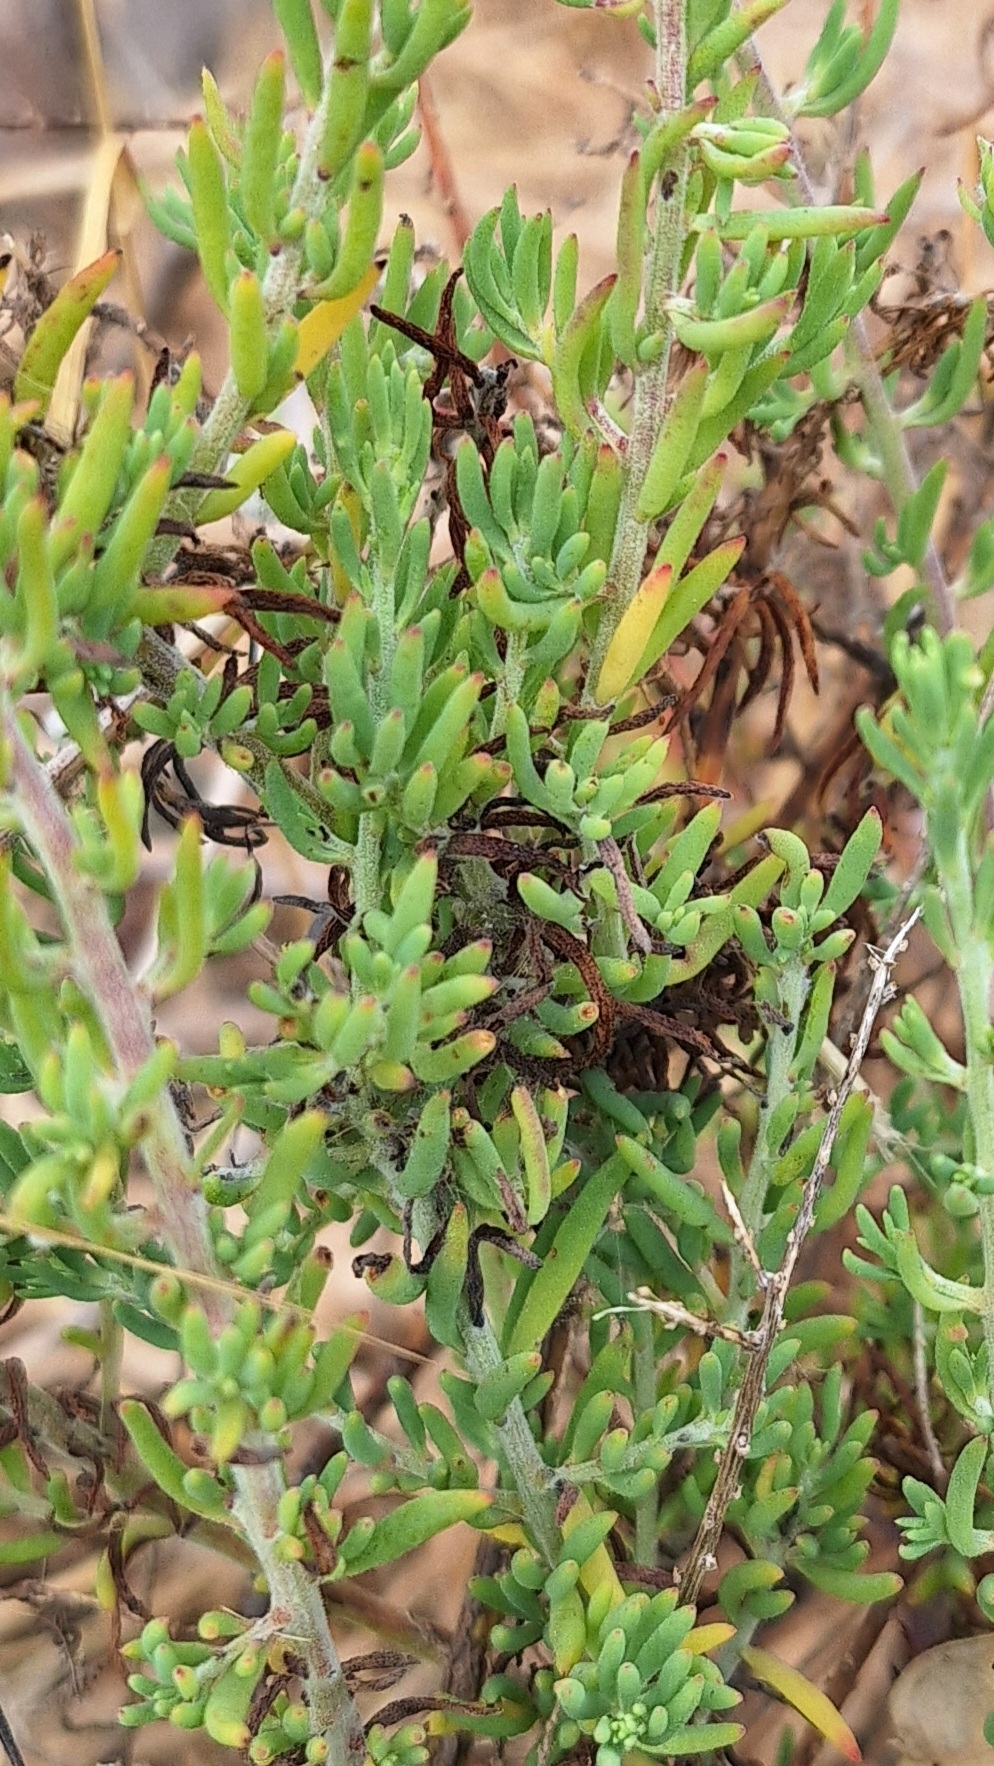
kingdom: Plantae
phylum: Tracheophyta
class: Magnoliopsida
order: Caryophyllales
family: Amaranthaceae
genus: Enchylaena
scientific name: Enchylaena tomentosa
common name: Ruby saltbush
